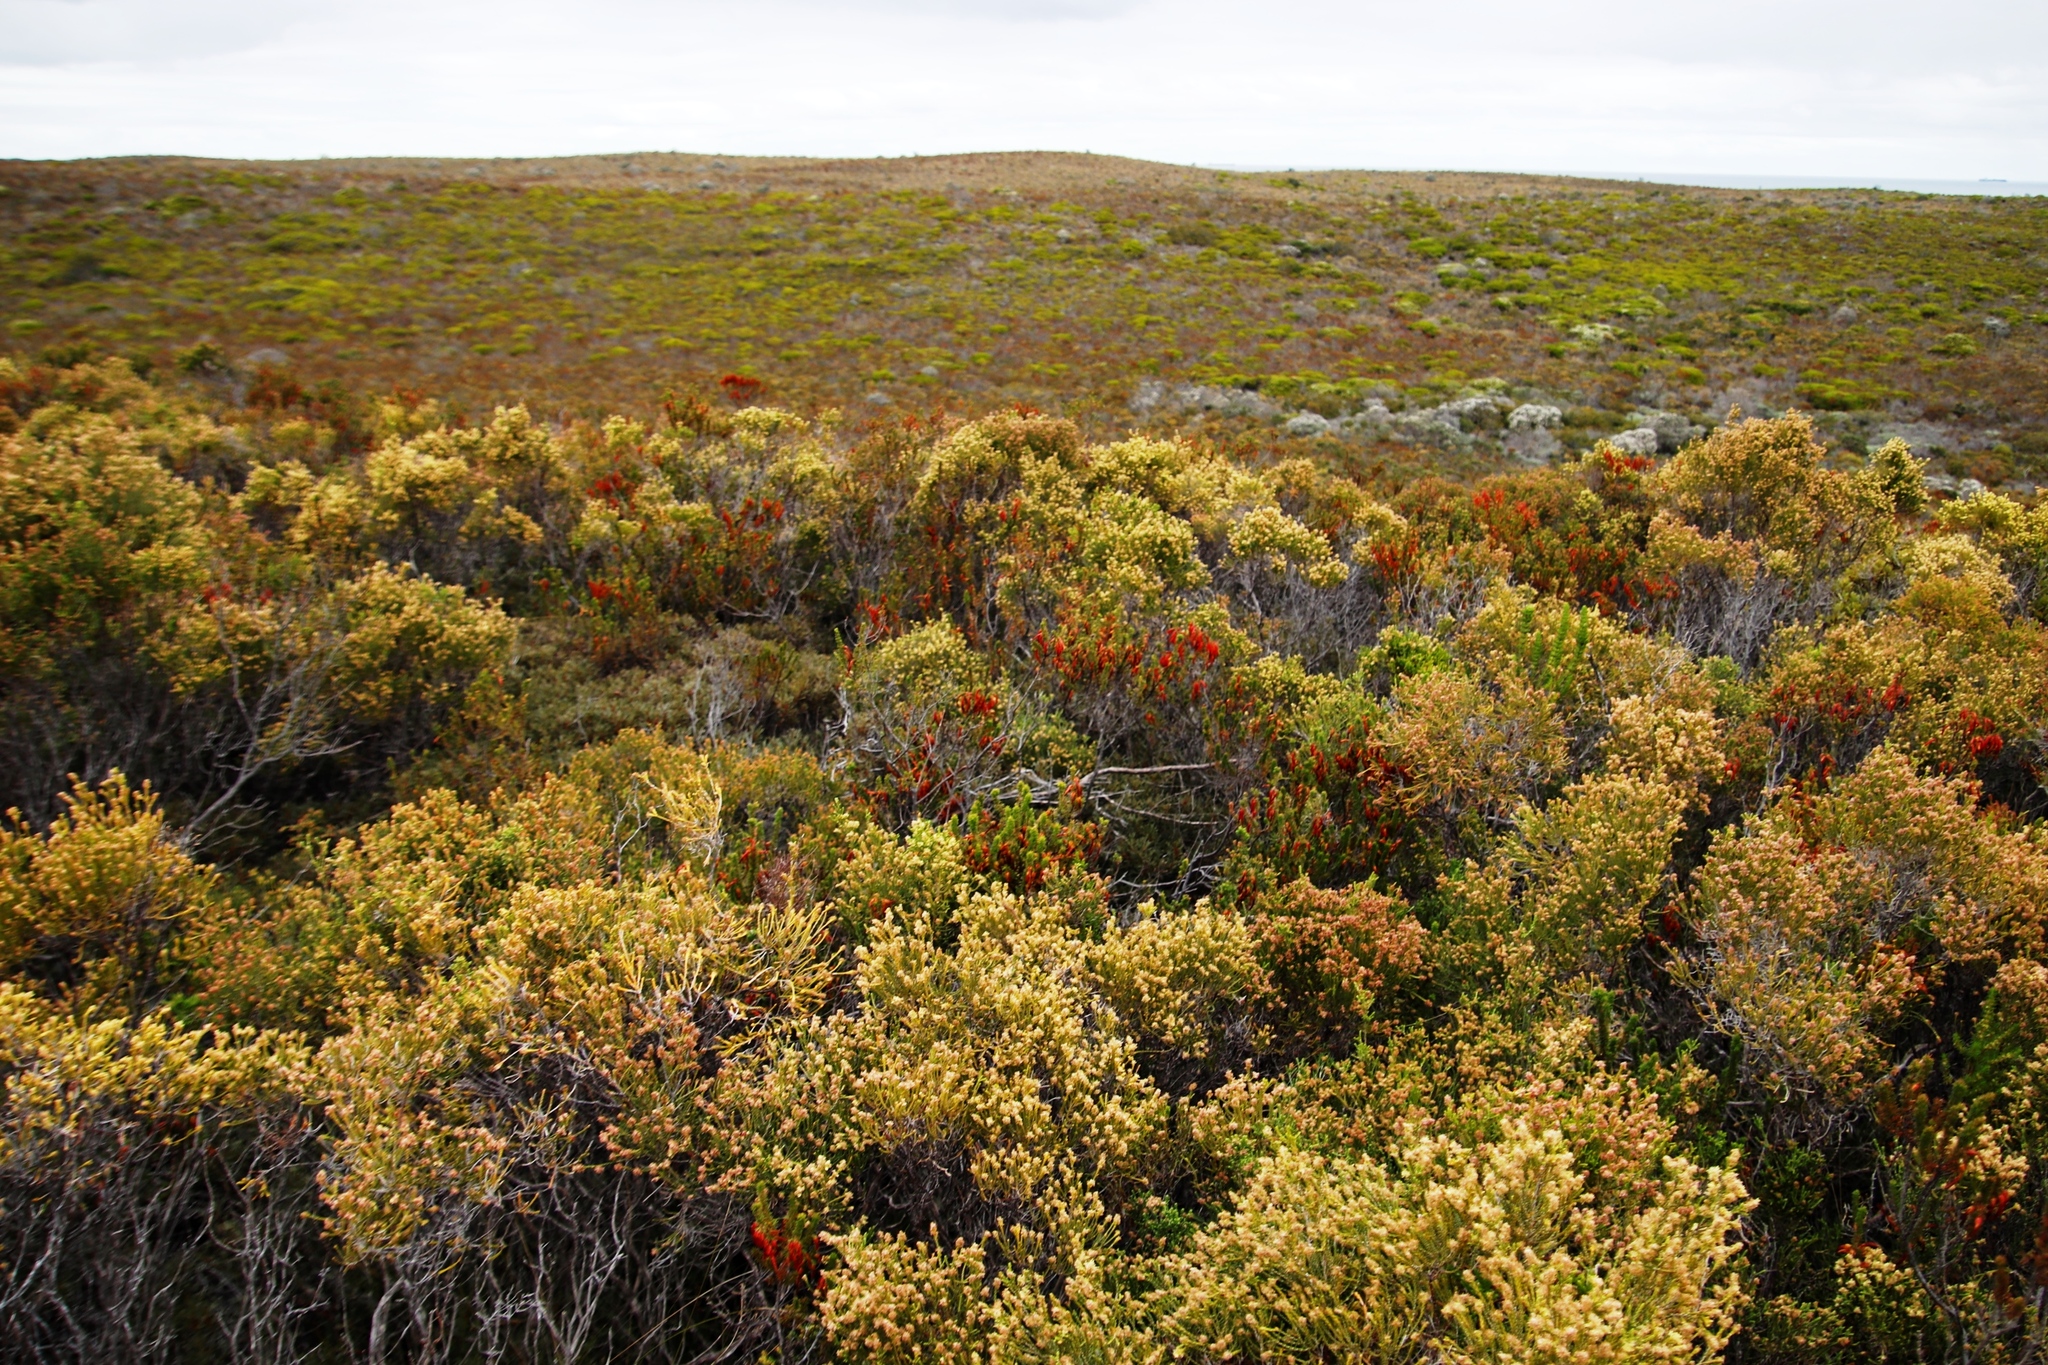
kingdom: Plantae
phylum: Tracheophyta
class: Magnoliopsida
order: Ericales
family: Ericaceae
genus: Erica
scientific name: Erica coccinea
